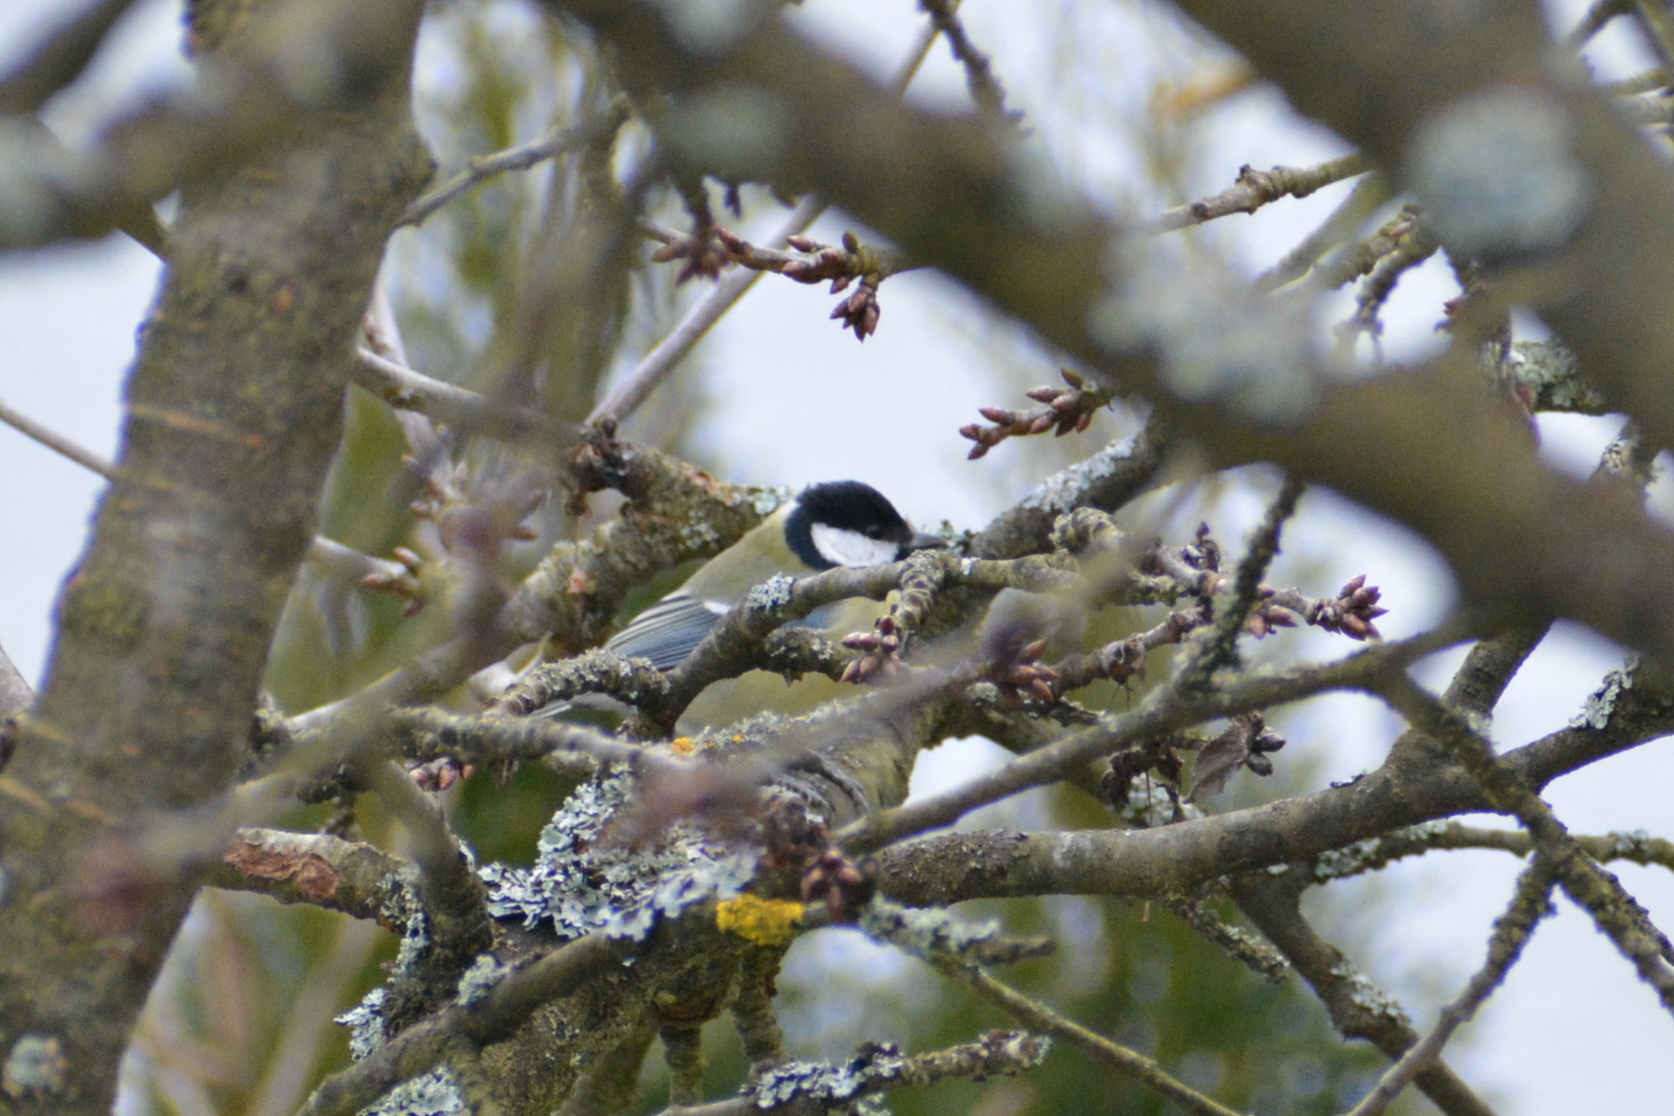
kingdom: Animalia
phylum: Chordata
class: Aves
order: Passeriformes
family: Paridae
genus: Parus
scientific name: Parus major
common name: Great tit
